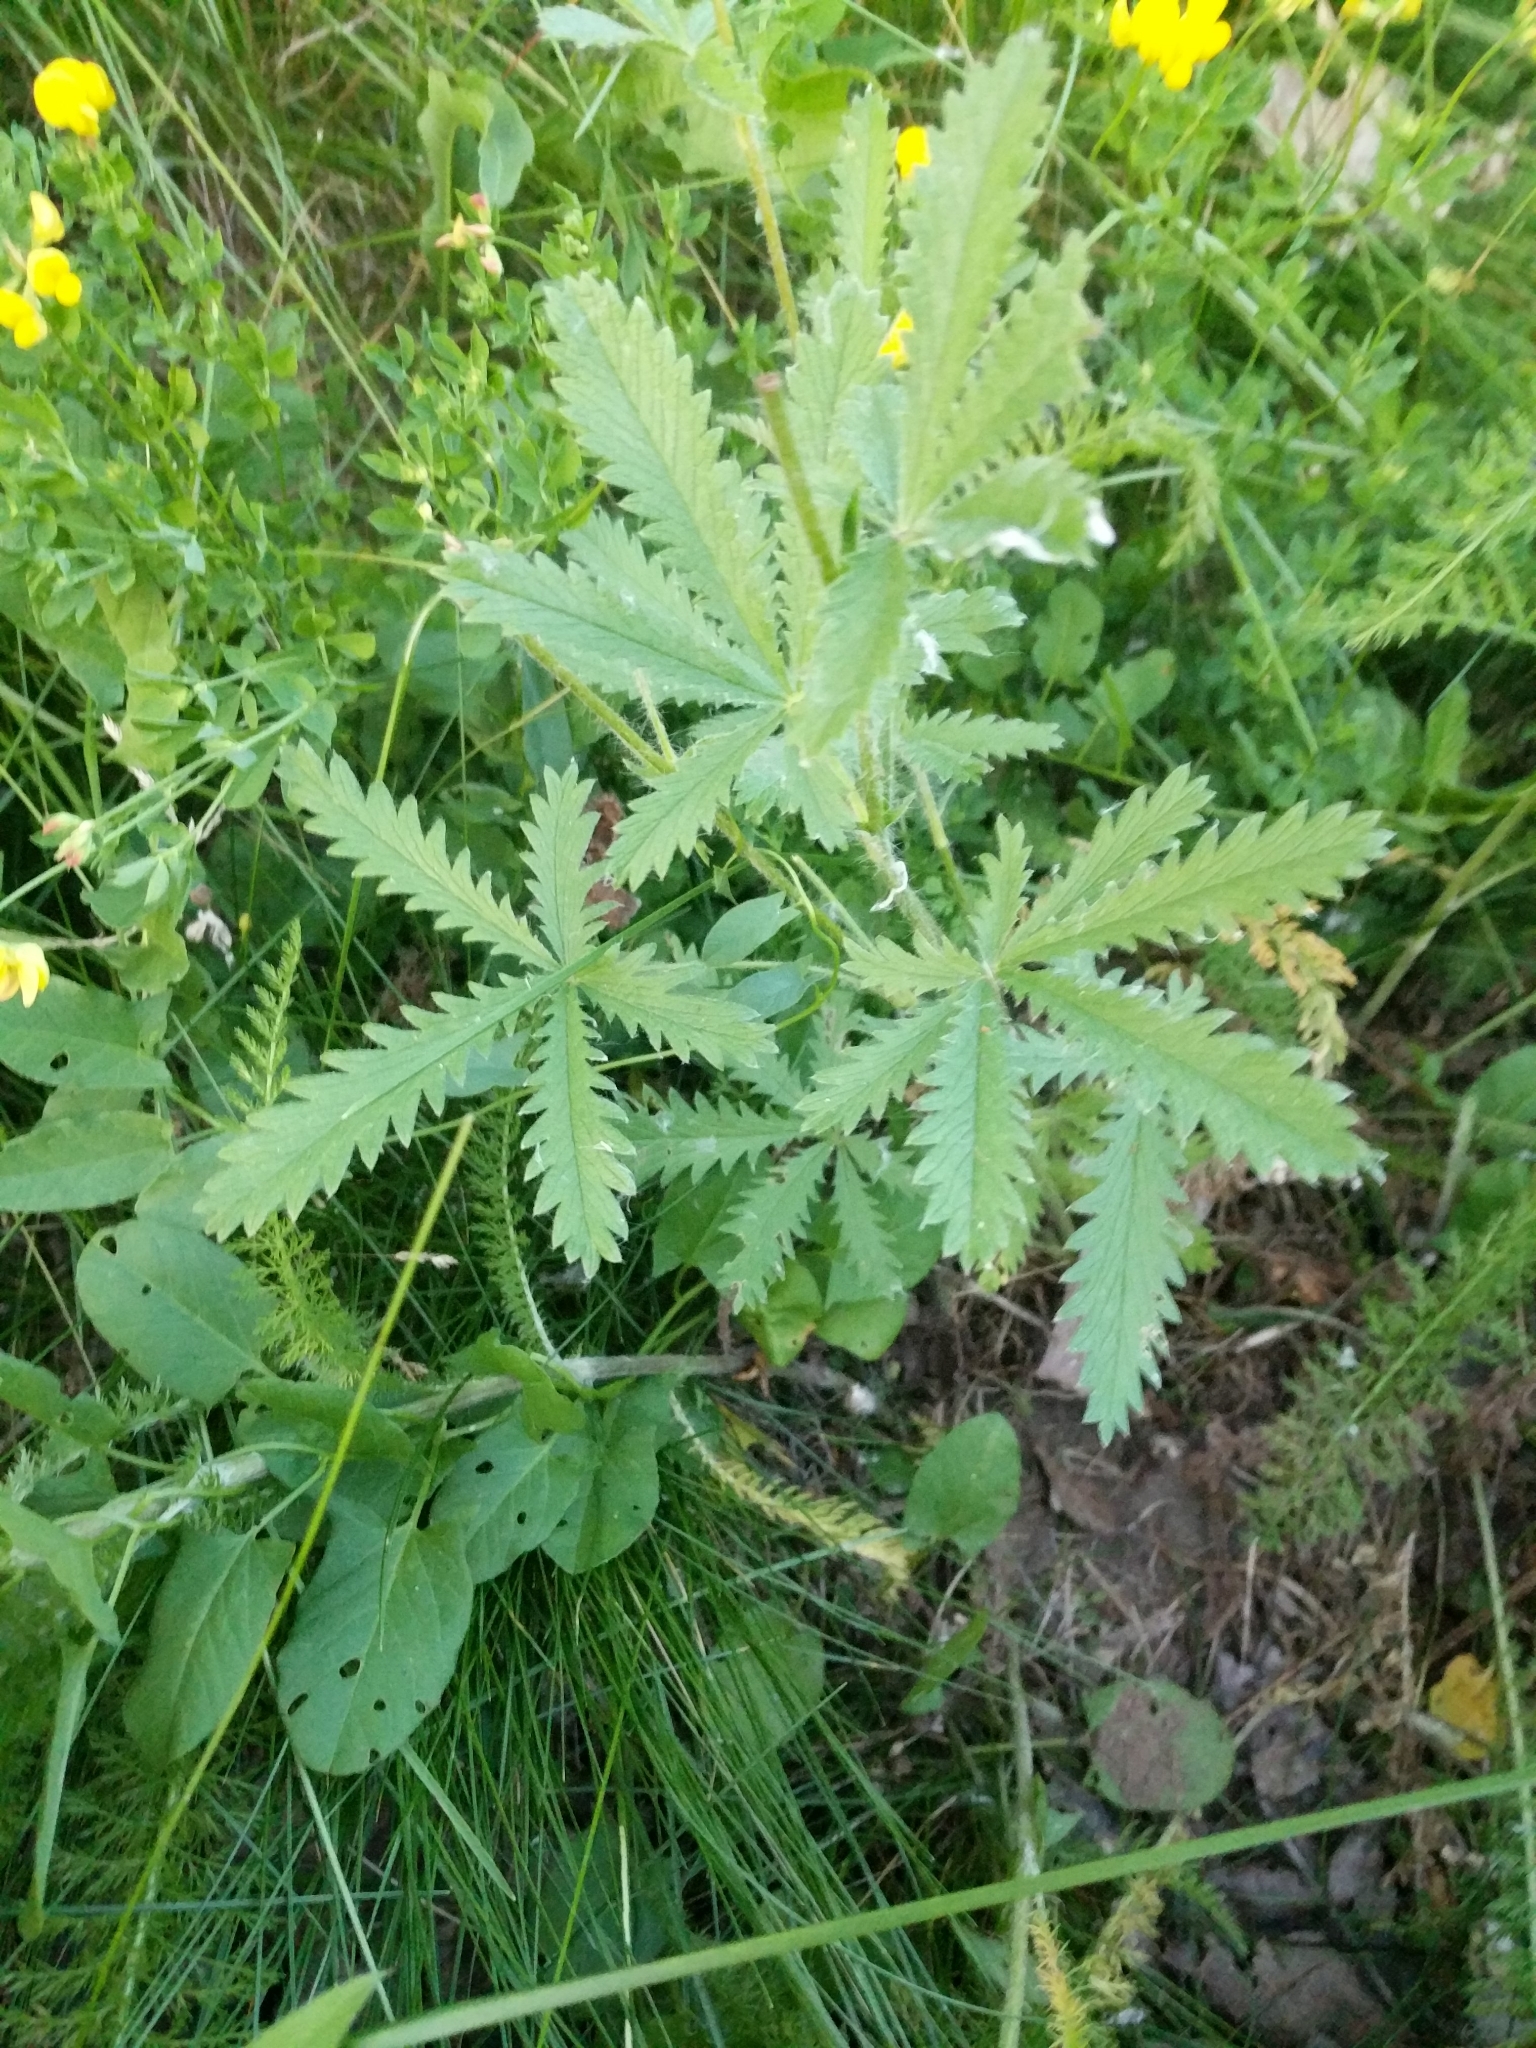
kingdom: Plantae
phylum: Tracheophyta
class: Magnoliopsida
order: Rosales
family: Rosaceae
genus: Potentilla
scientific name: Potentilla recta
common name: Sulphur cinquefoil
